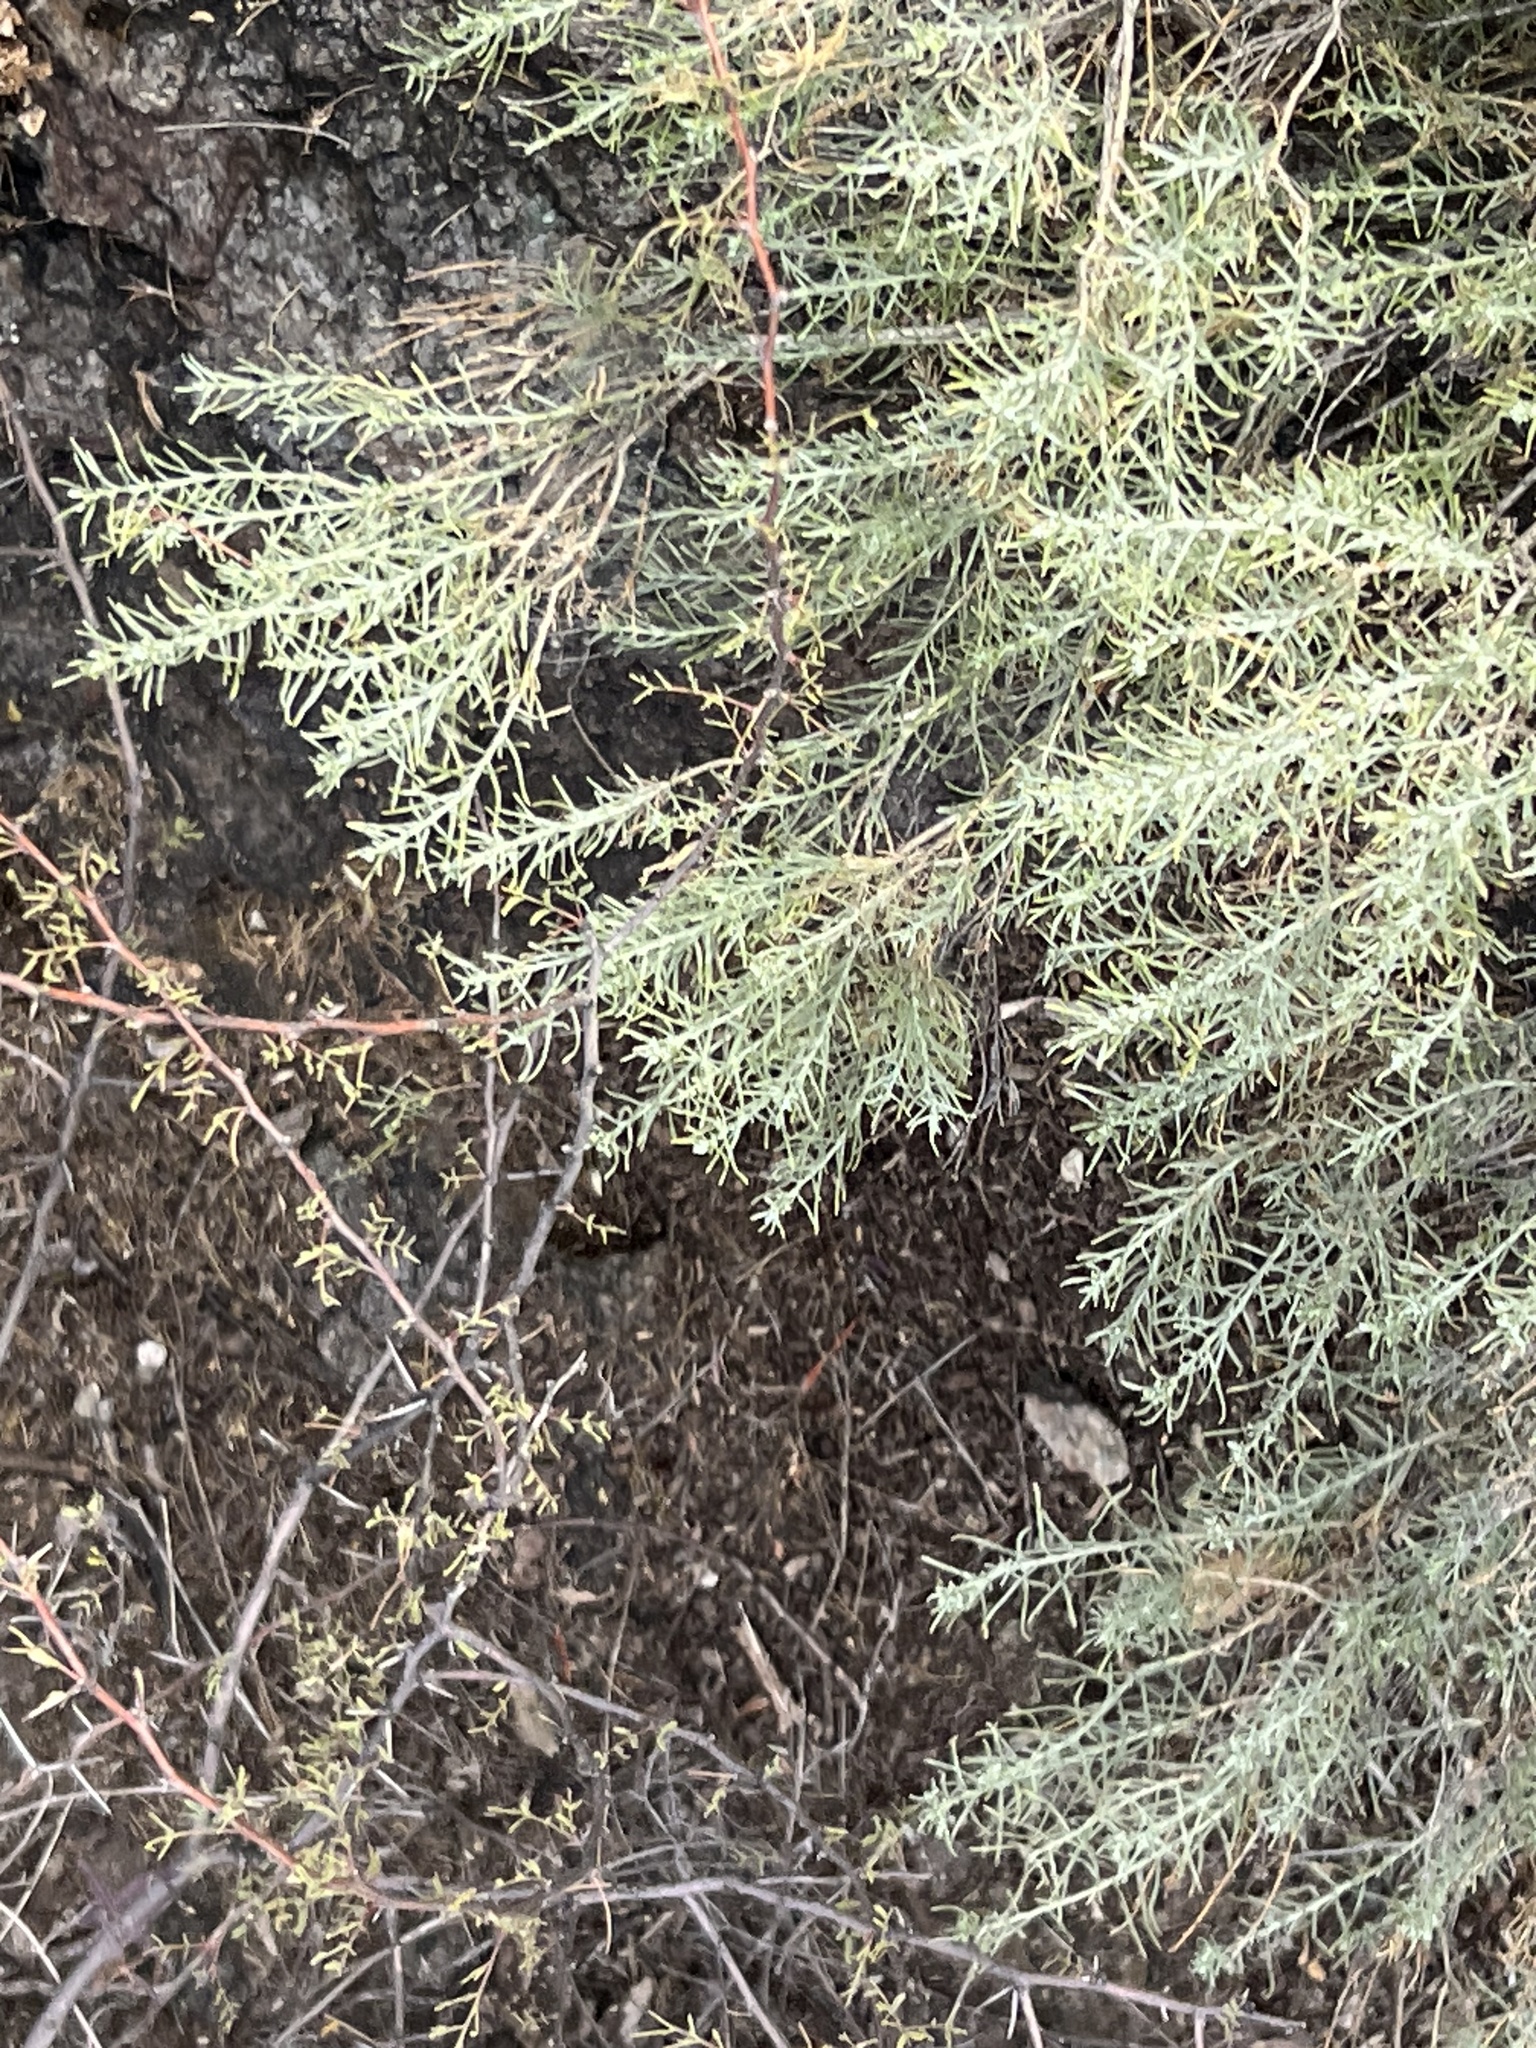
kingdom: Plantae
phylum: Tracheophyta
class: Magnoliopsida
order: Asterales
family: Asteraceae
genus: Ericameria
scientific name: Ericameria laricifolia
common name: Turpentine-bush
